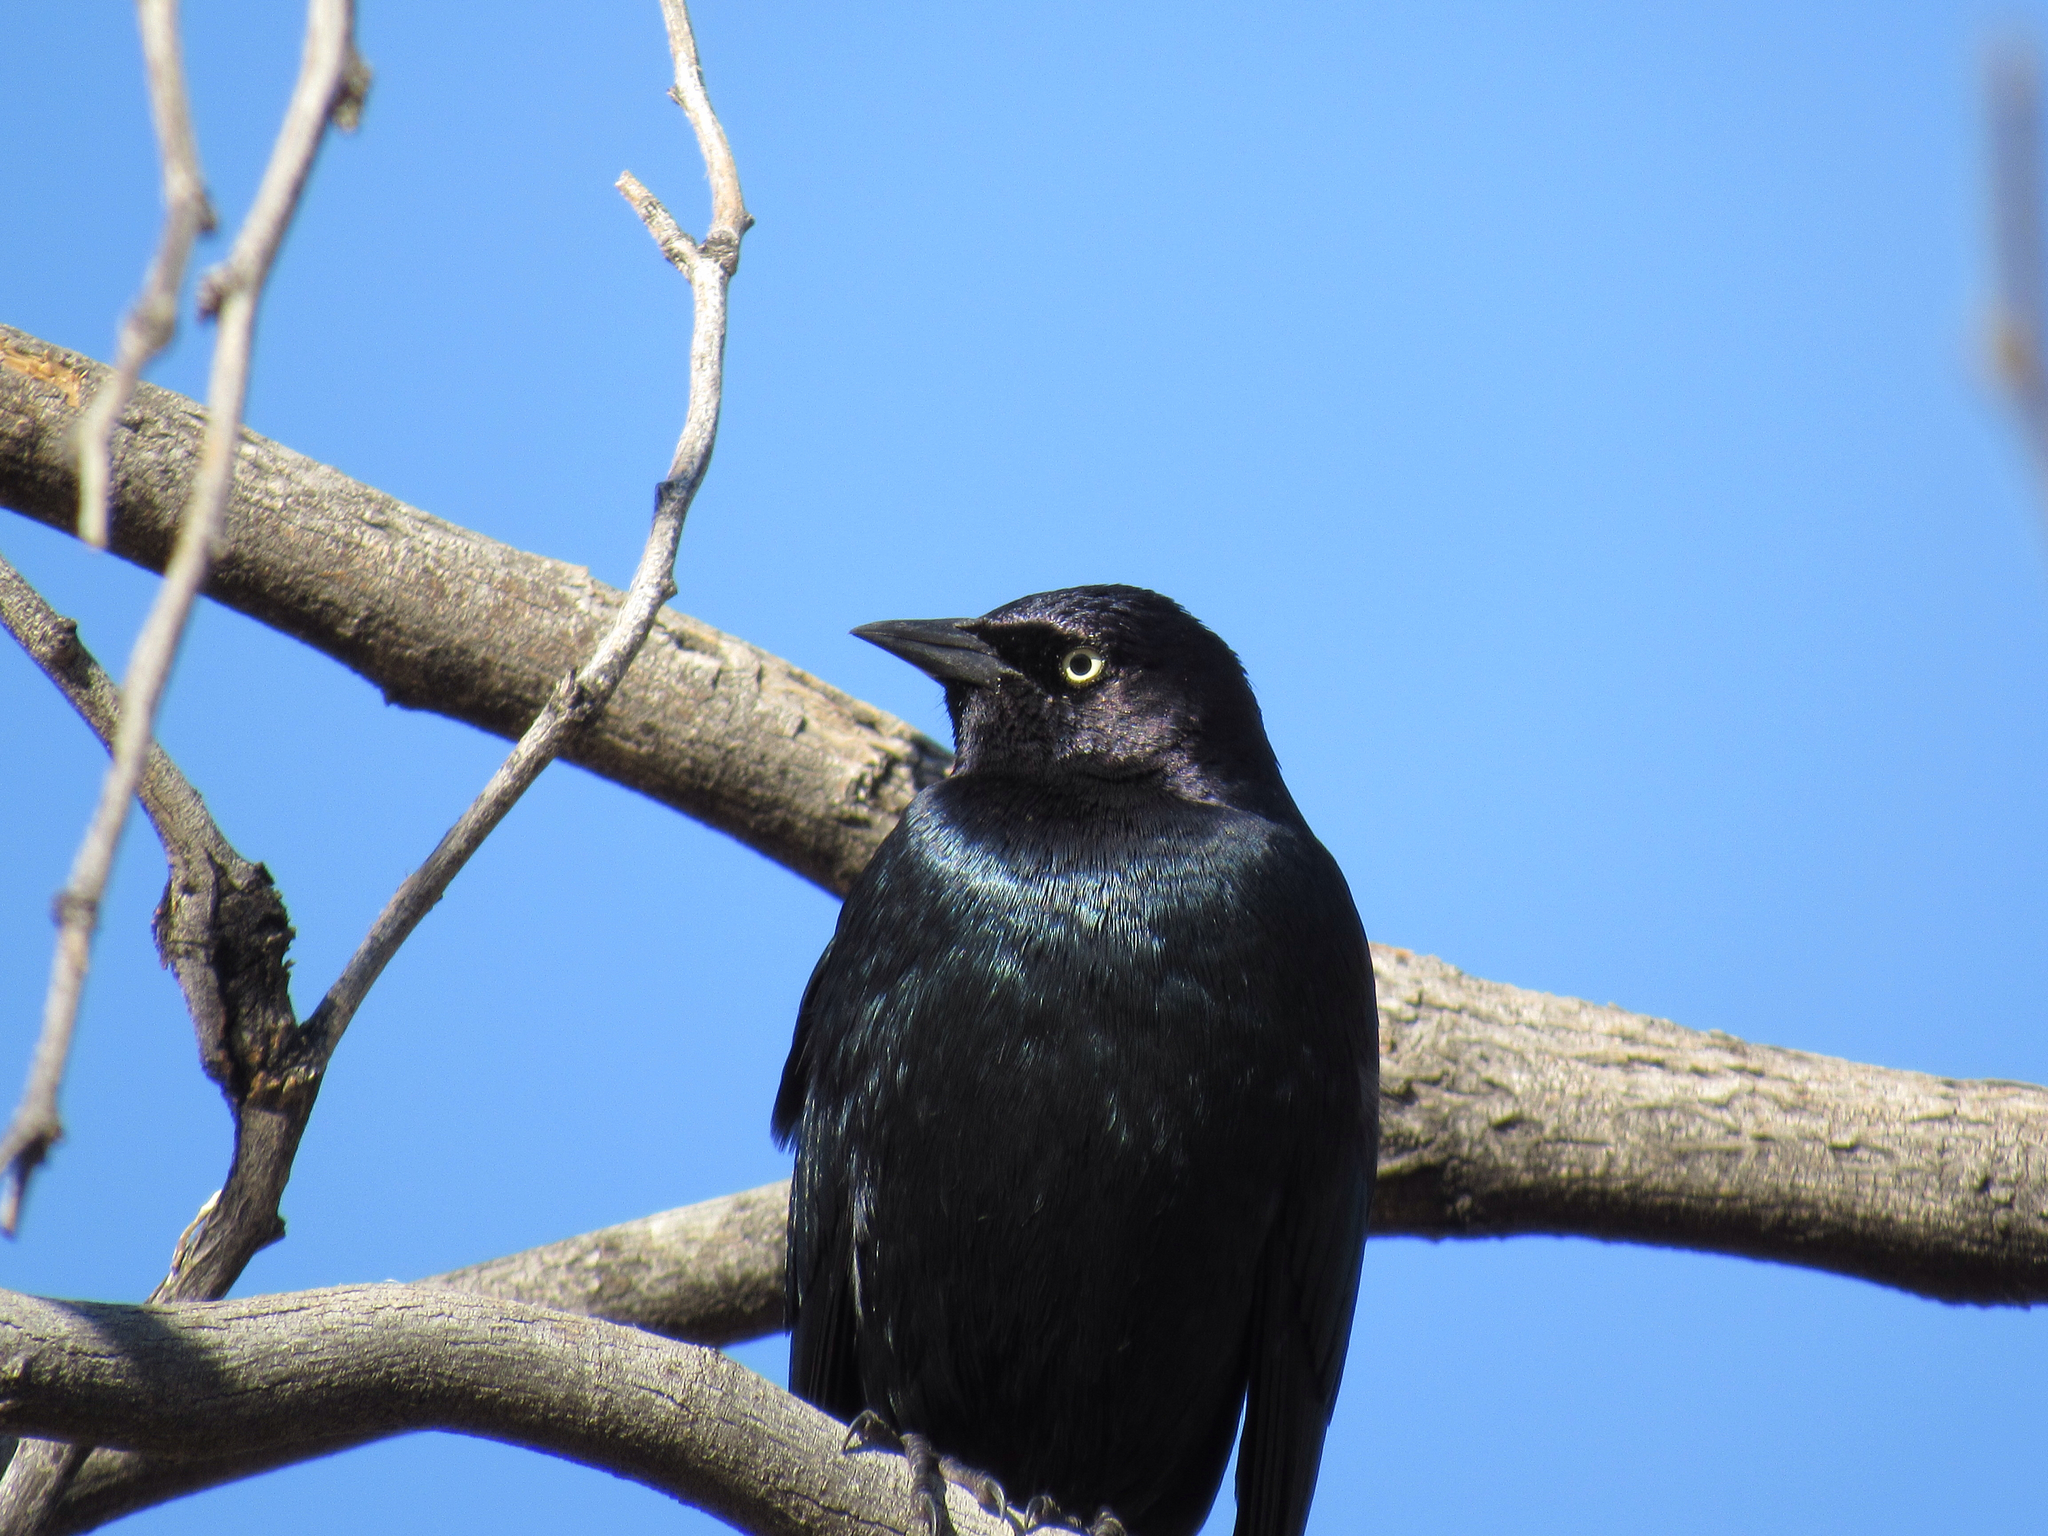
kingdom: Animalia
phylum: Chordata
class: Aves
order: Passeriformes
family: Icteridae
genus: Euphagus
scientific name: Euphagus cyanocephalus
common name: Brewer's blackbird
